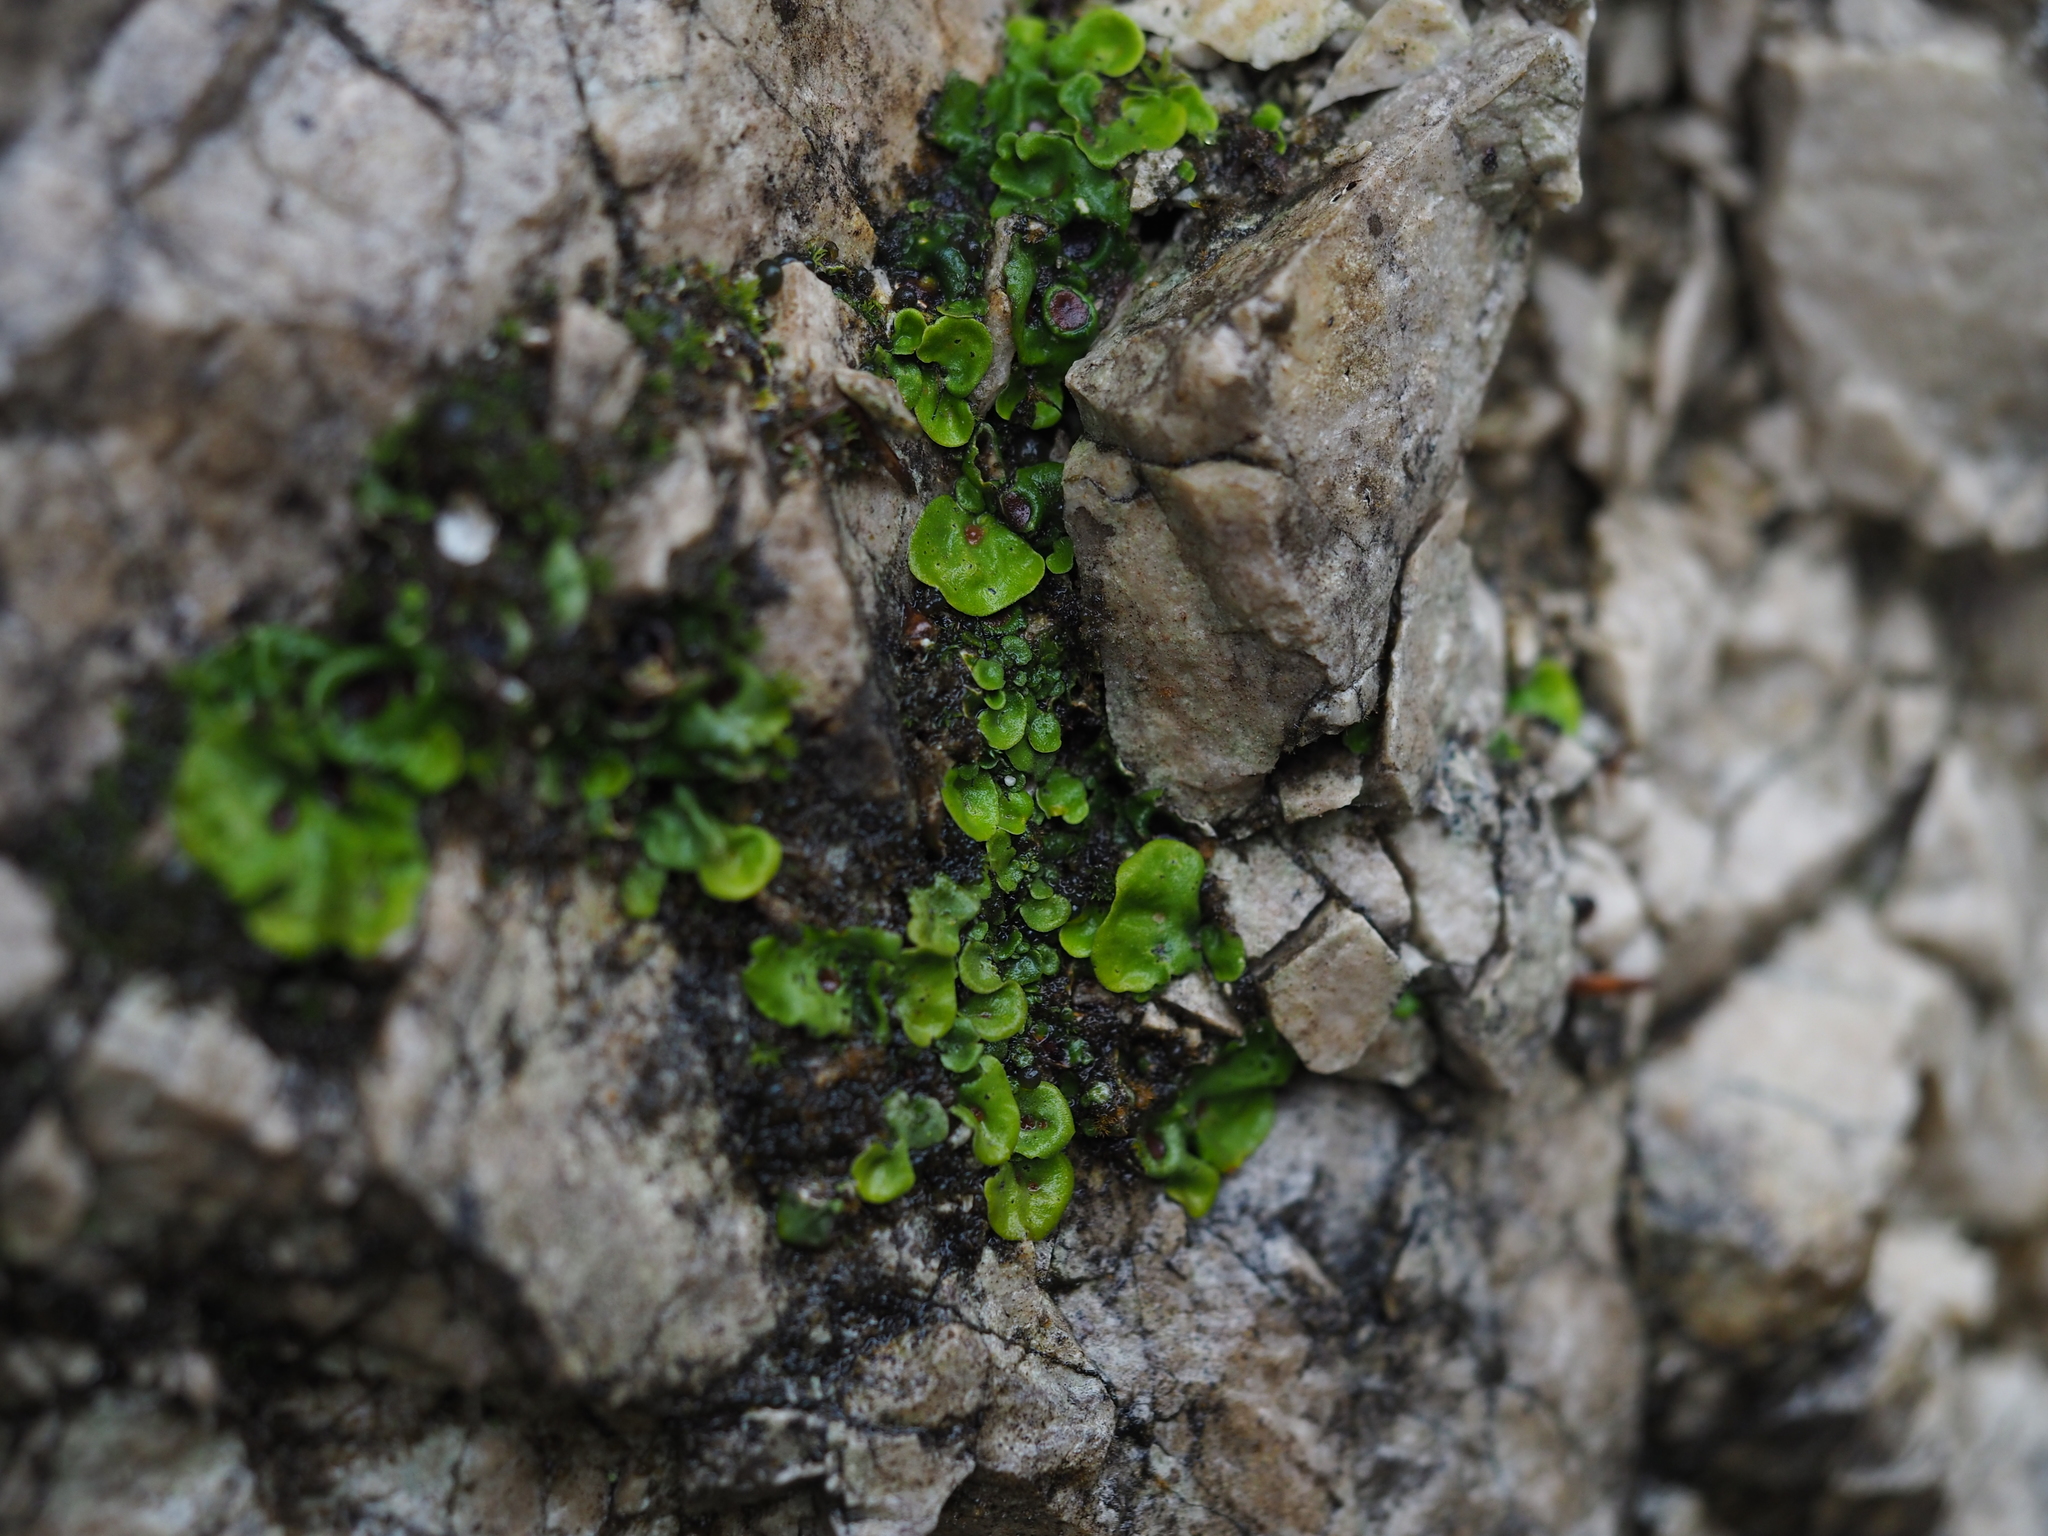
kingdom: Fungi
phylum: Ascomycota
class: Lecanoromycetes
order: Peltigerales
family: Peltigeraceae
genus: Solorina
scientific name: Solorina saccata
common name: Common chocolate chip lichen
